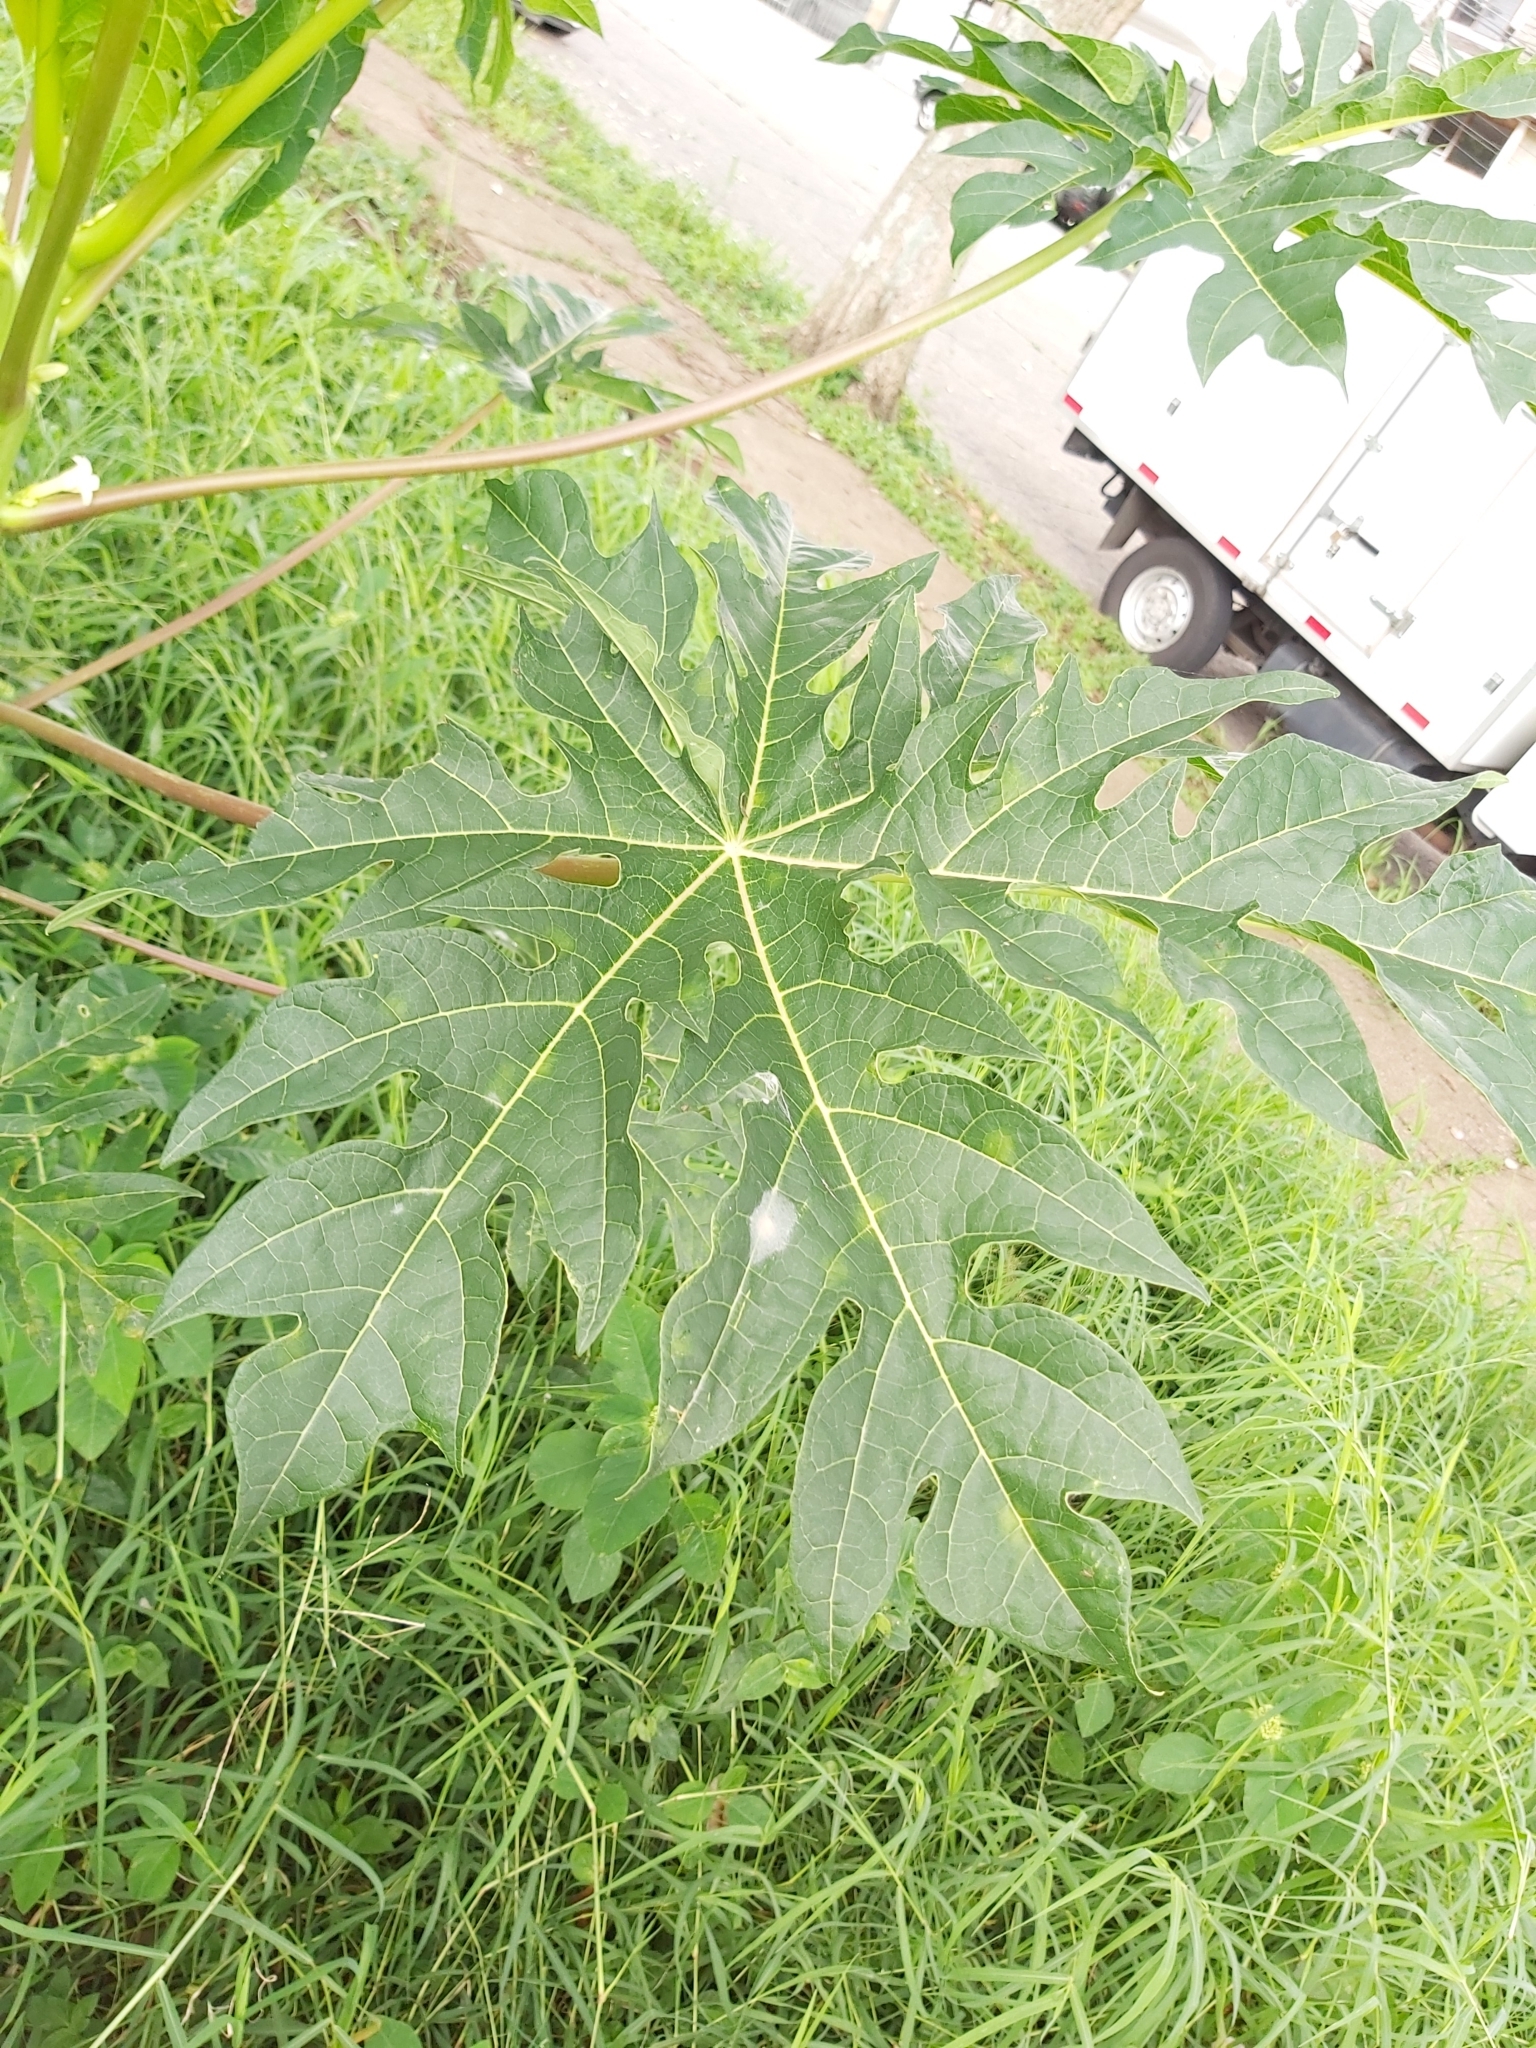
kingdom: Plantae
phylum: Tracheophyta
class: Magnoliopsida
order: Brassicales
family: Caricaceae
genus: Carica
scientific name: Carica papaya
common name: Papaya
